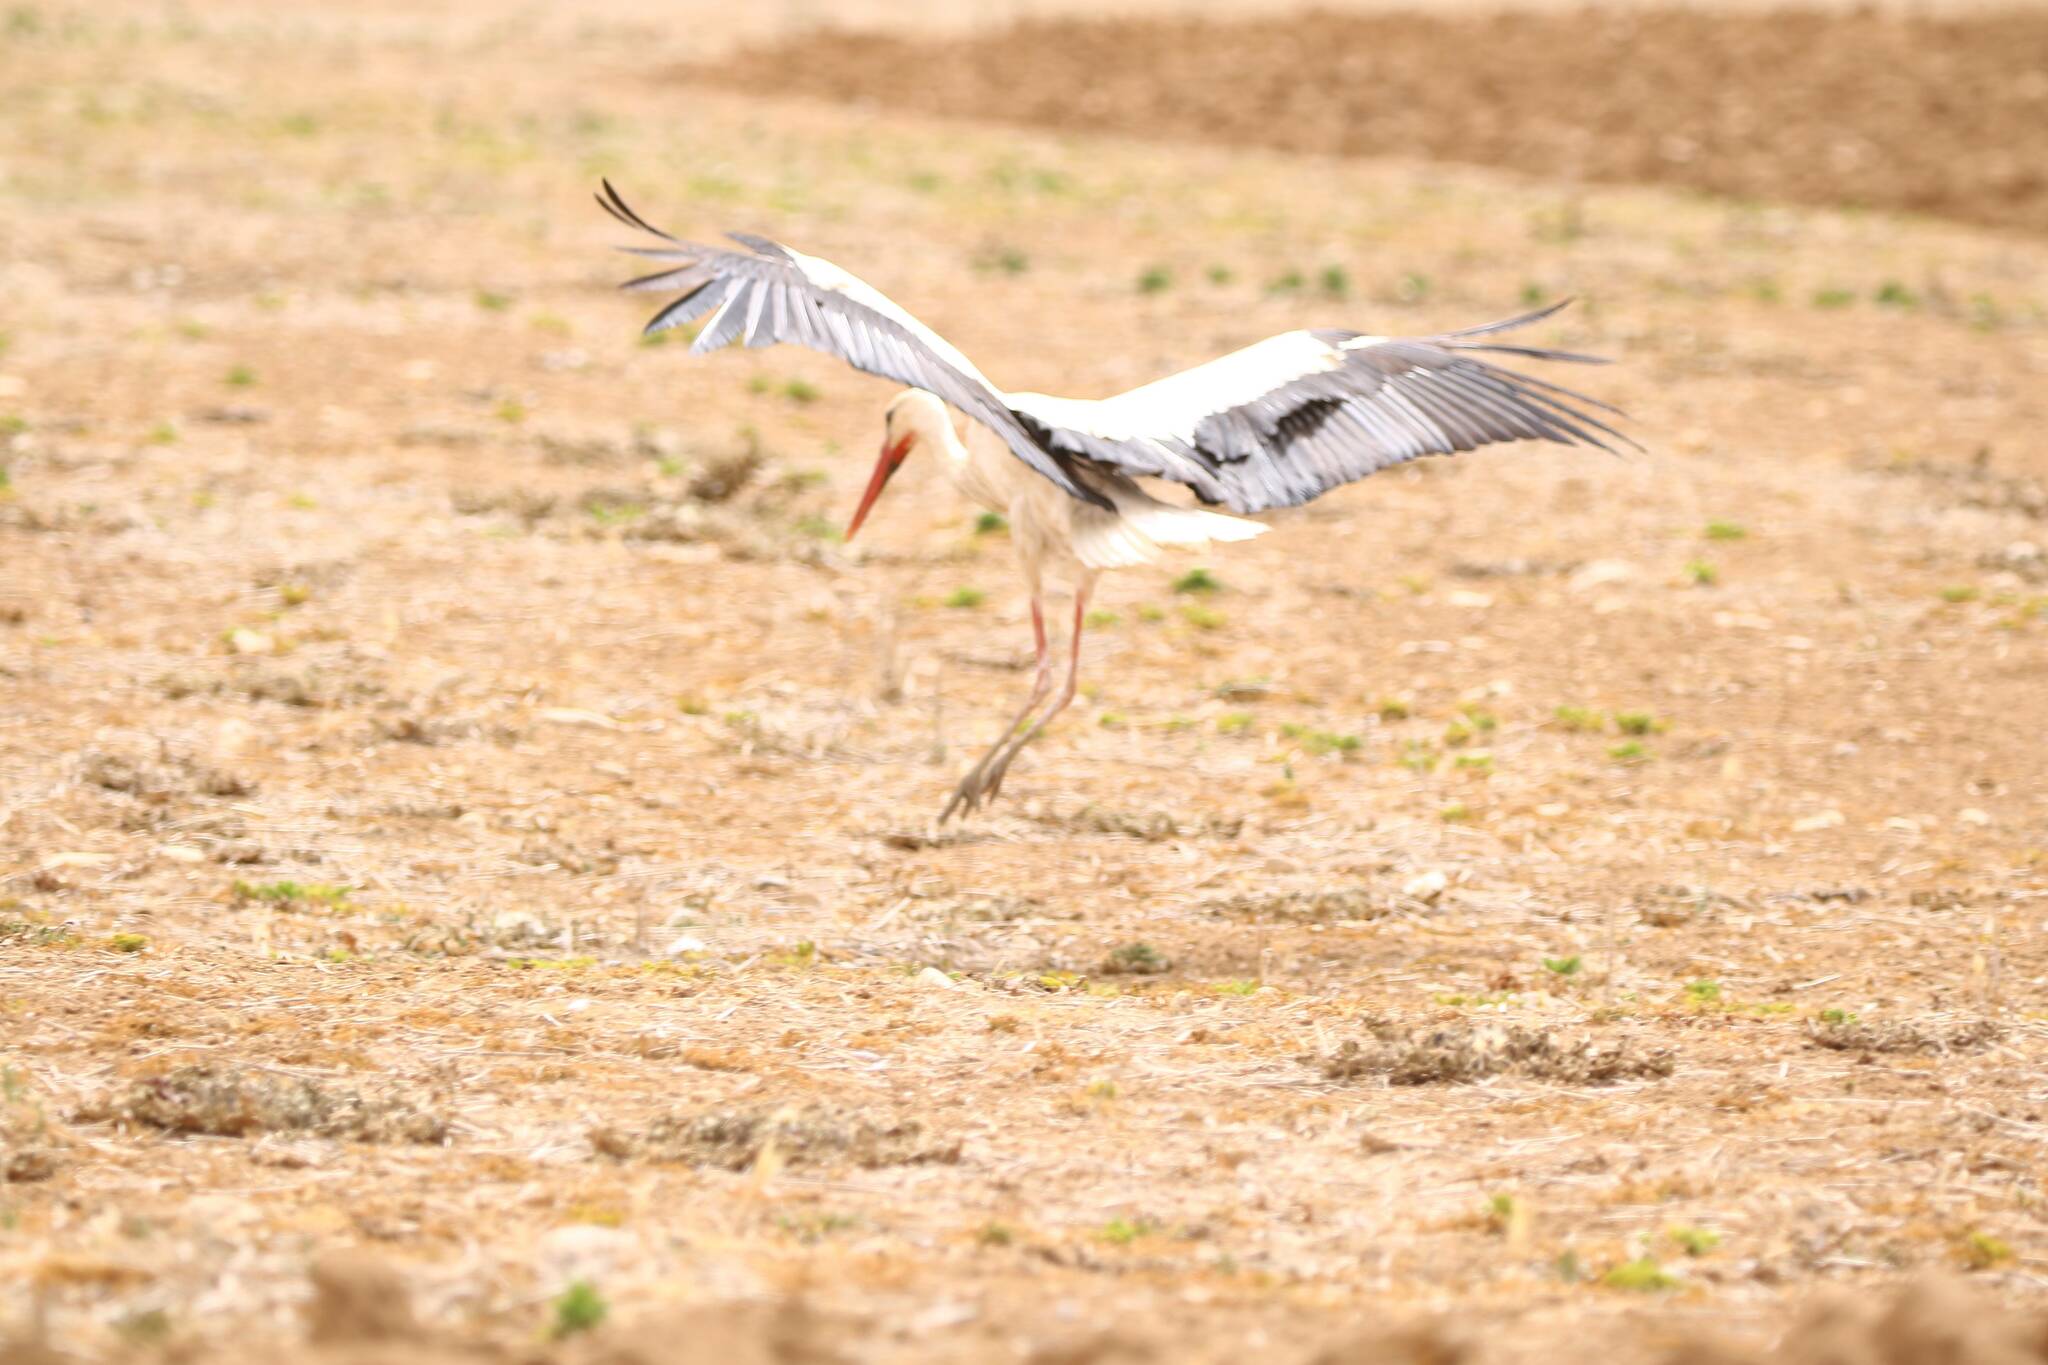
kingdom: Animalia
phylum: Chordata
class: Aves
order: Ciconiiformes
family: Ciconiidae
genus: Ciconia
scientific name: Ciconia ciconia
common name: White stork
